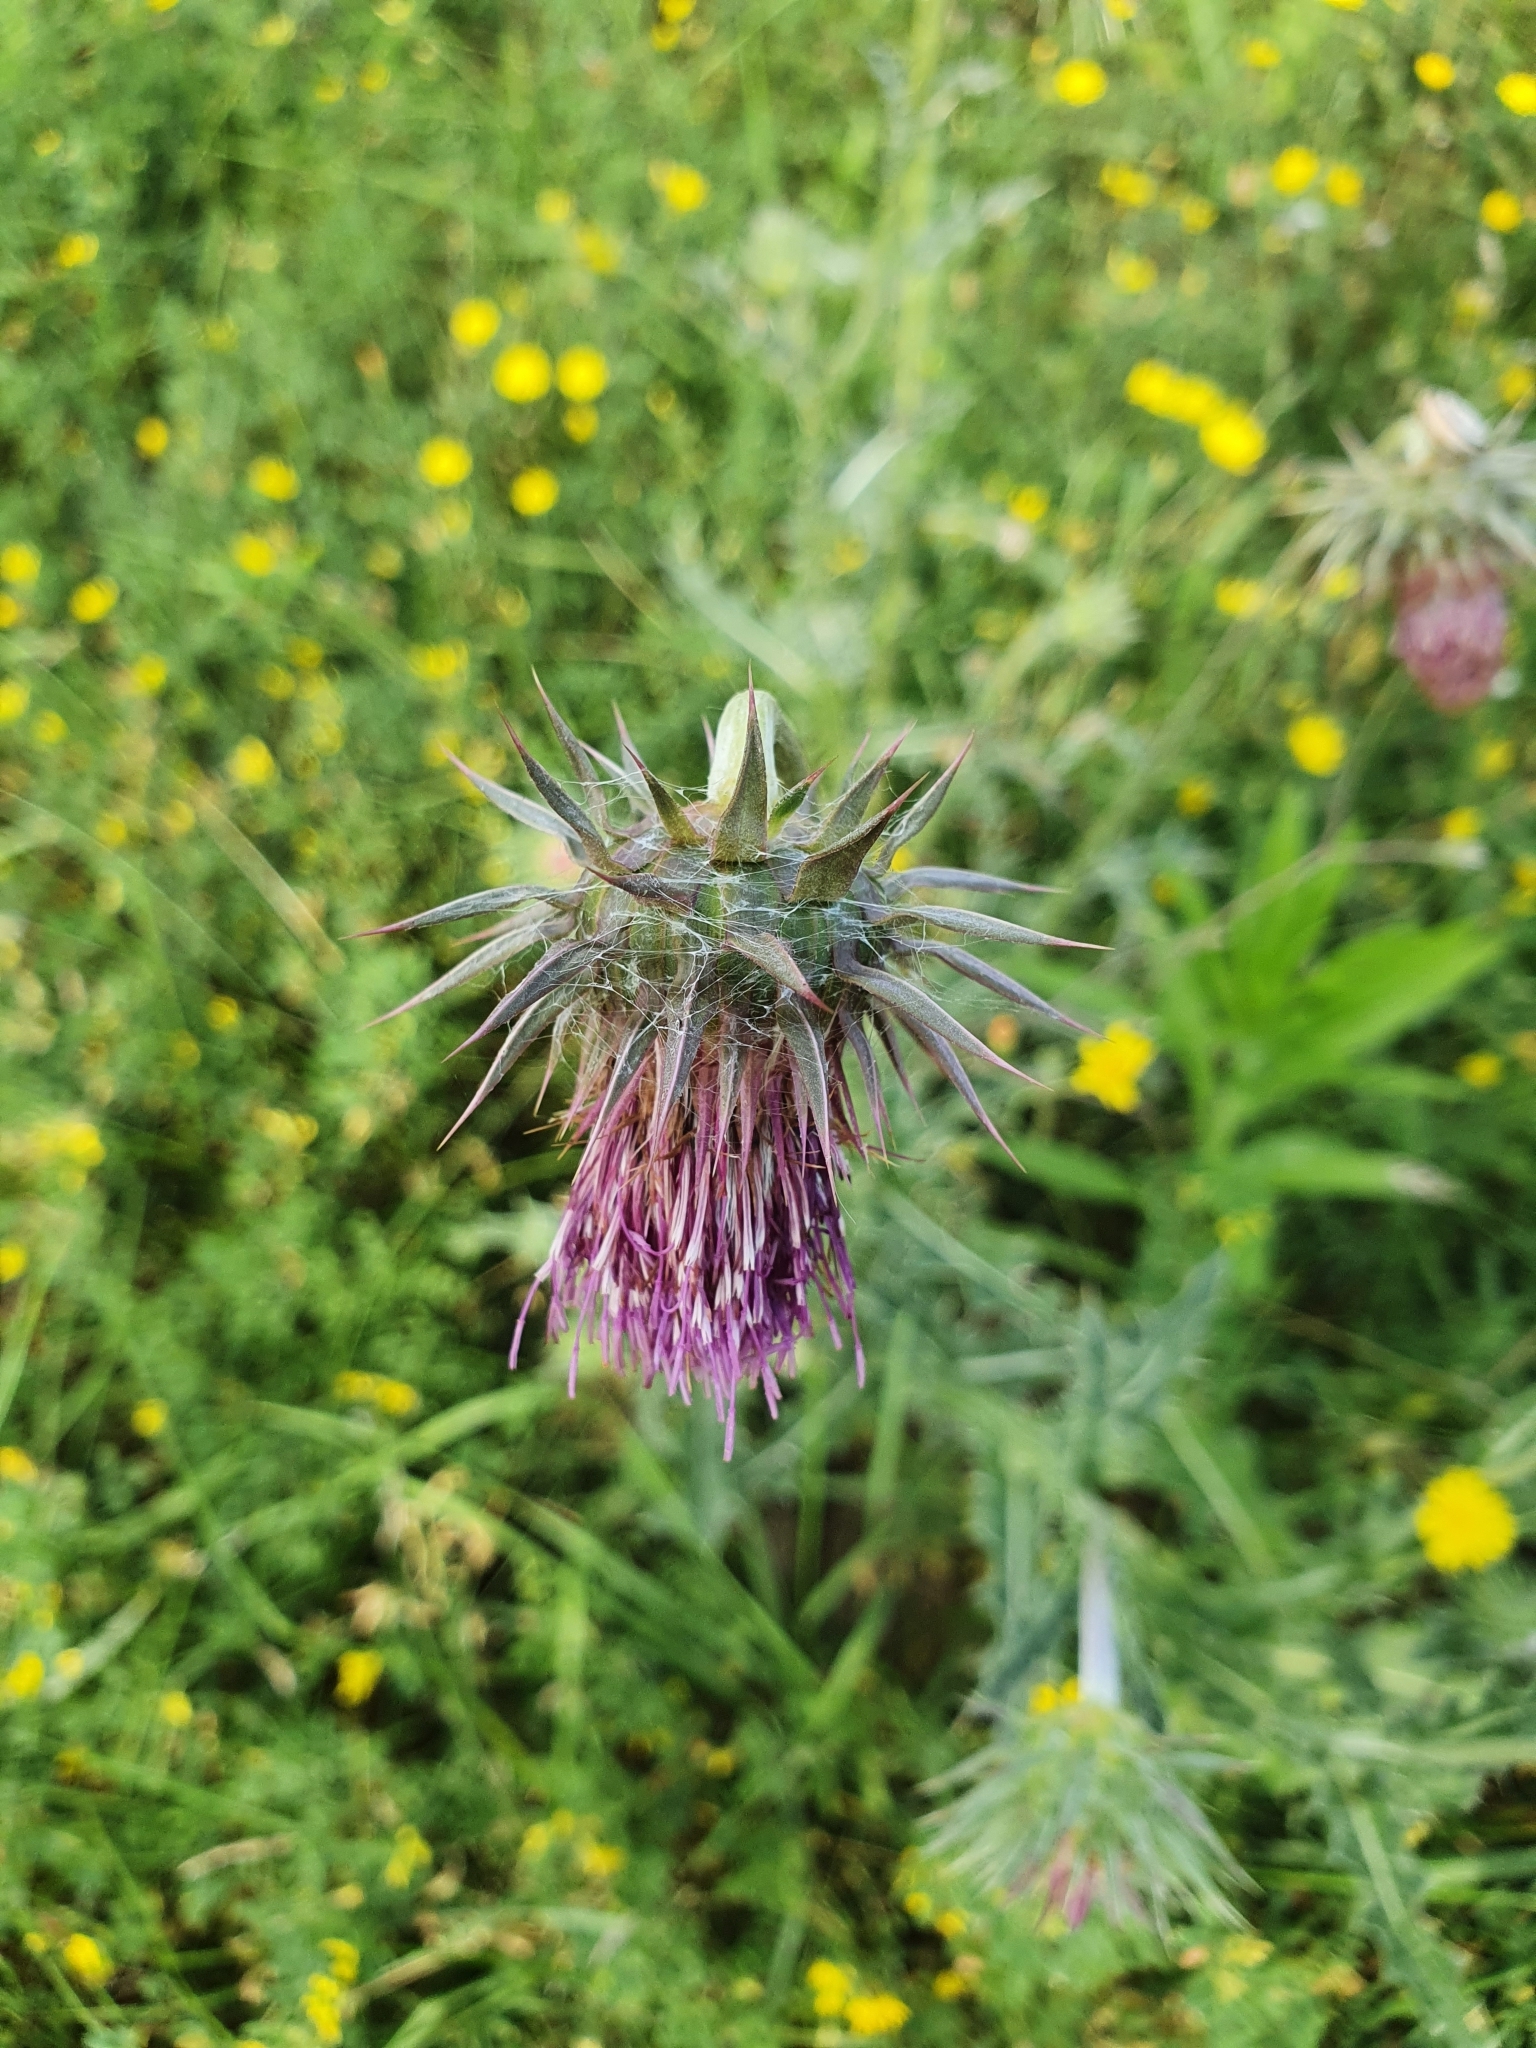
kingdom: Plantae
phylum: Tracheophyta
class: Magnoliopsida
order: Asterales
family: Asteraceae
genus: Carduus
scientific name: Carduus nutans
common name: Musk thistle
